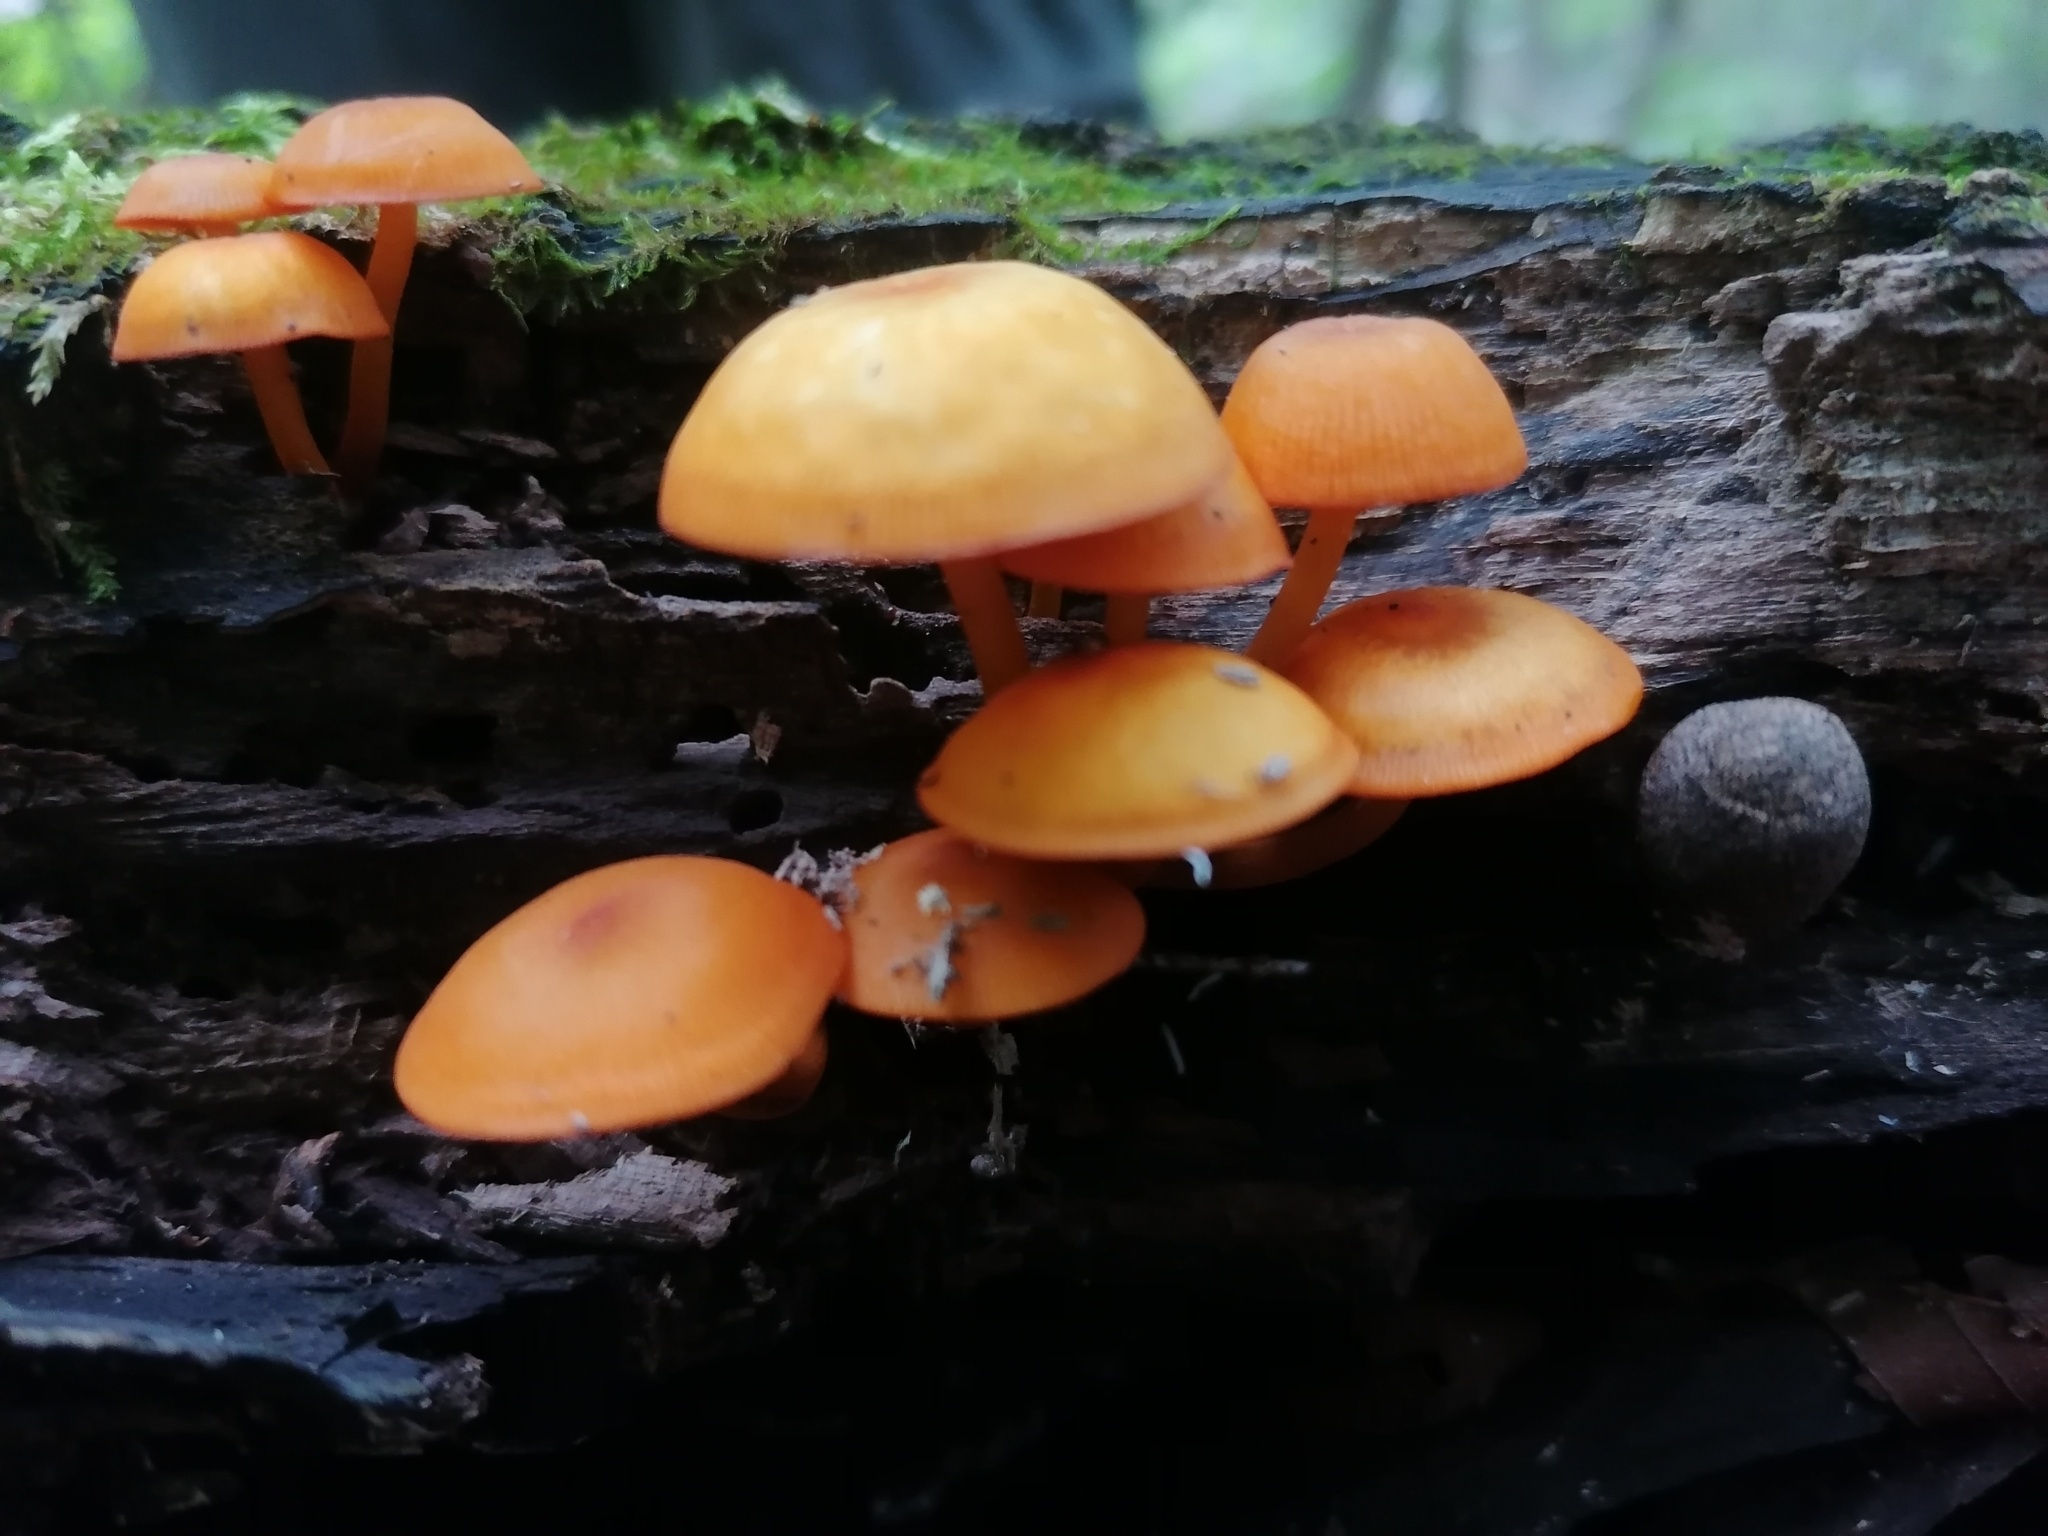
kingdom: Fungi
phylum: Basidiomycota
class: Agaricomycetes
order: Agaricales
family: Mycenaceae
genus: Mycena
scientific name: Mycena leaiana
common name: Orange mycena
